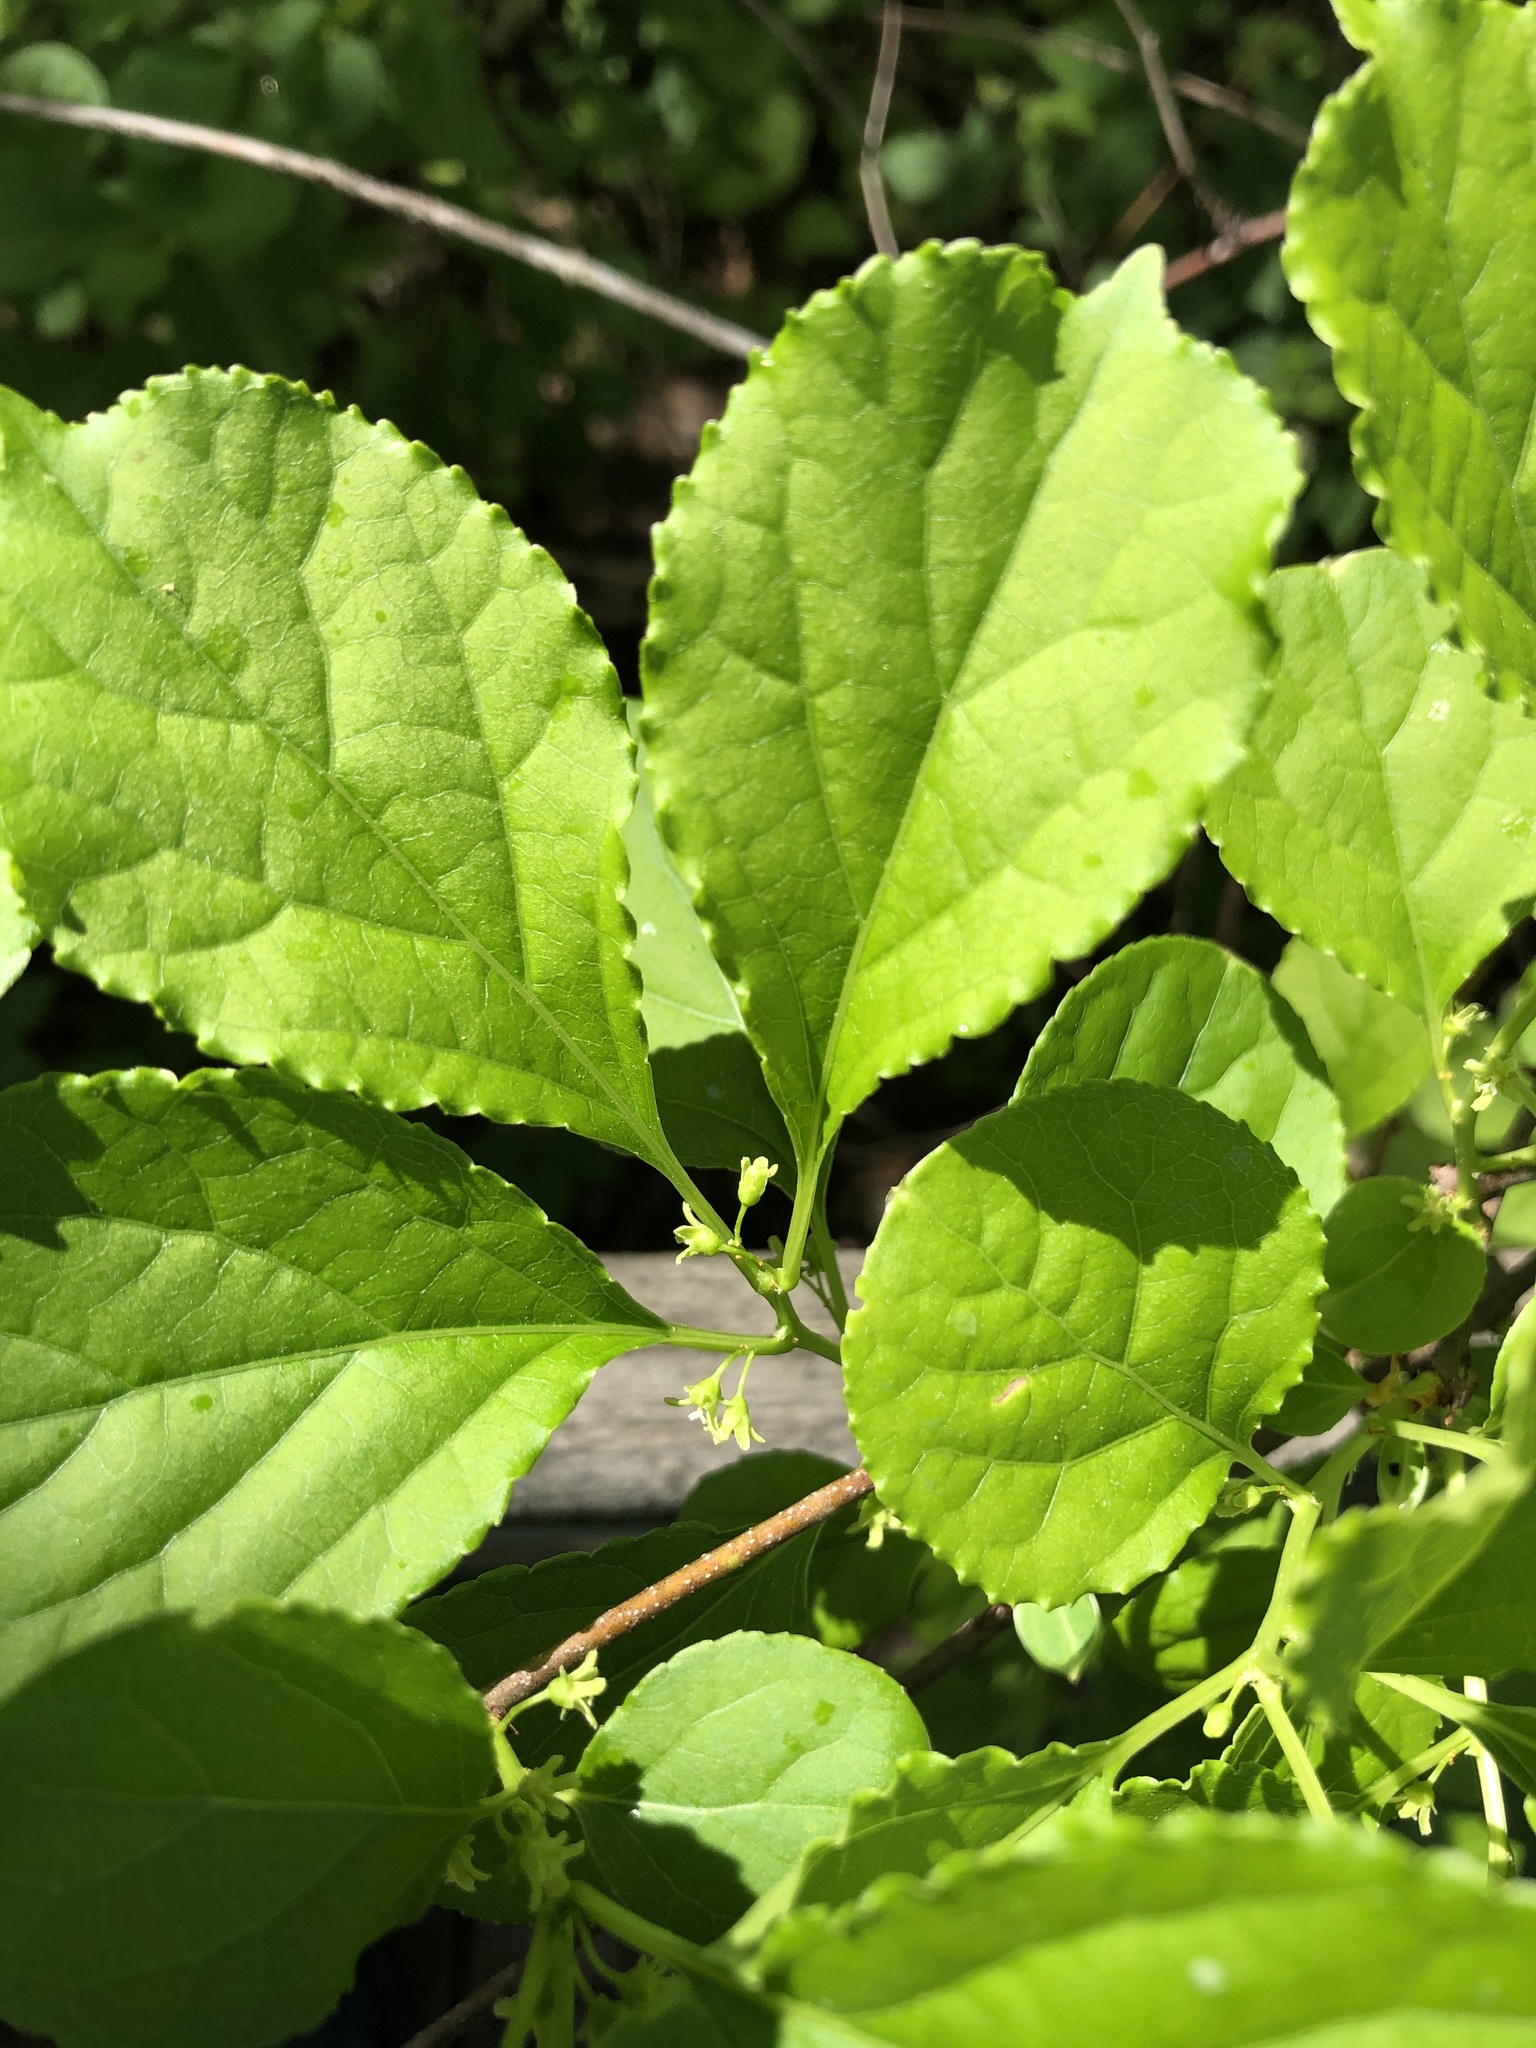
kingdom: Plantae
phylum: Tracheophyta
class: Magnoliopsida
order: Celastrales
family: Celastraceae
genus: Celastrus
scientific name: Celastrus orbiculatus
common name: Oriental bittersweet
